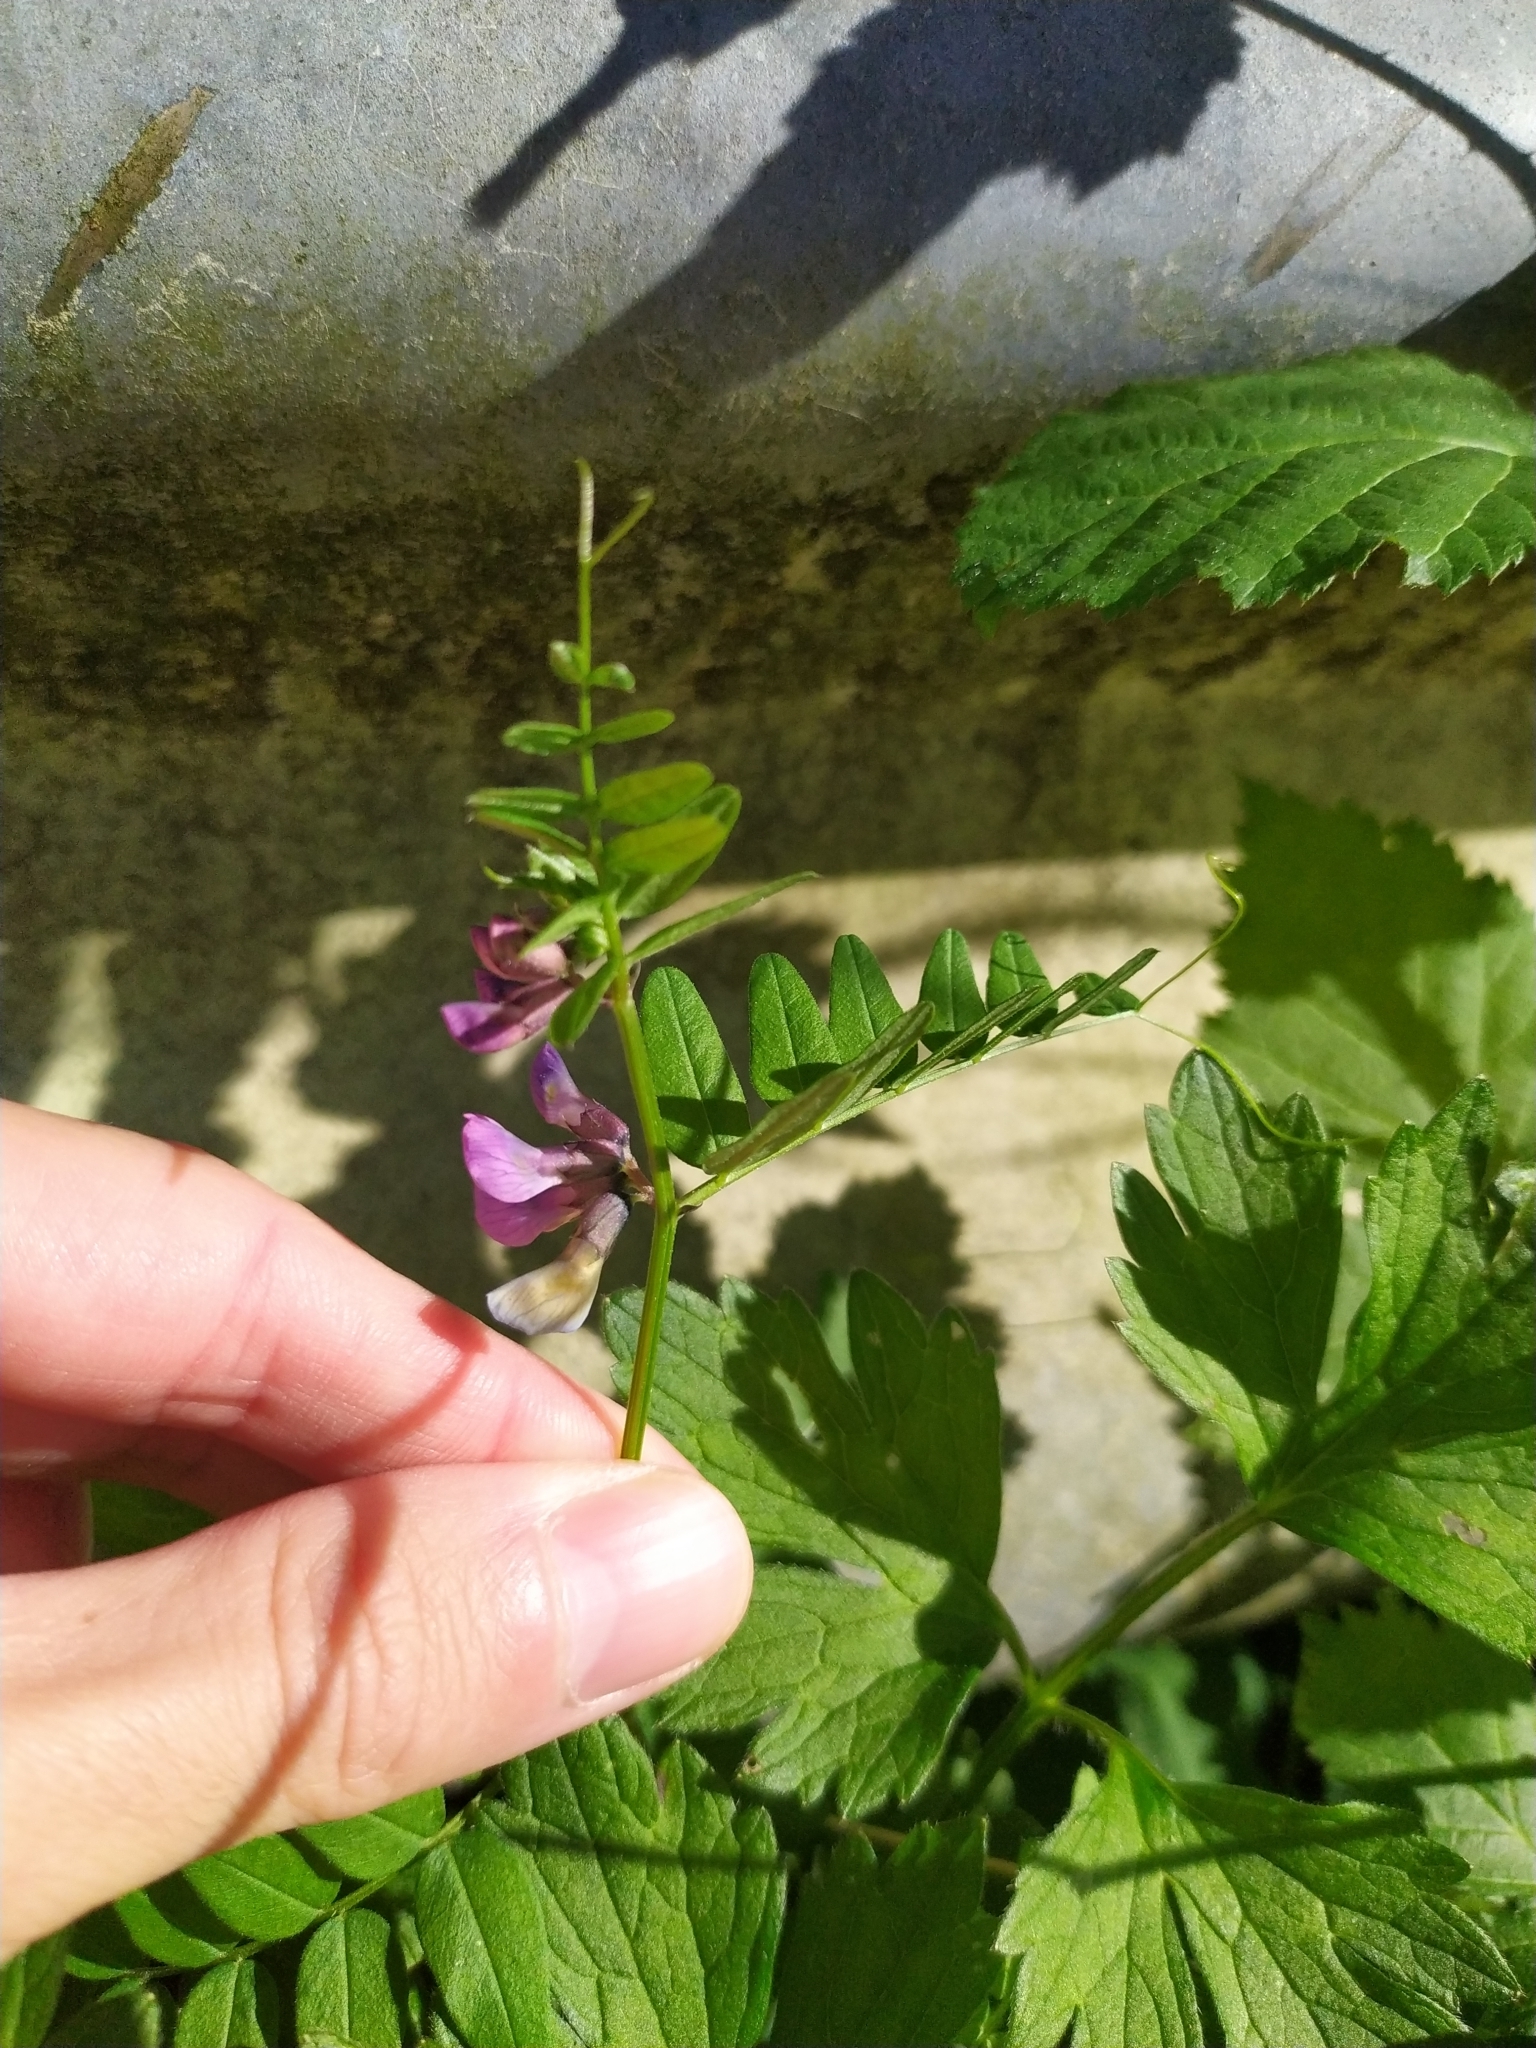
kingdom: Plantae
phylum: Tracheophyta
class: Magnoliopsida
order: Fabales
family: Fabaceae
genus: Vicia
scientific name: Vicia sepium
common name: Bush vetch
